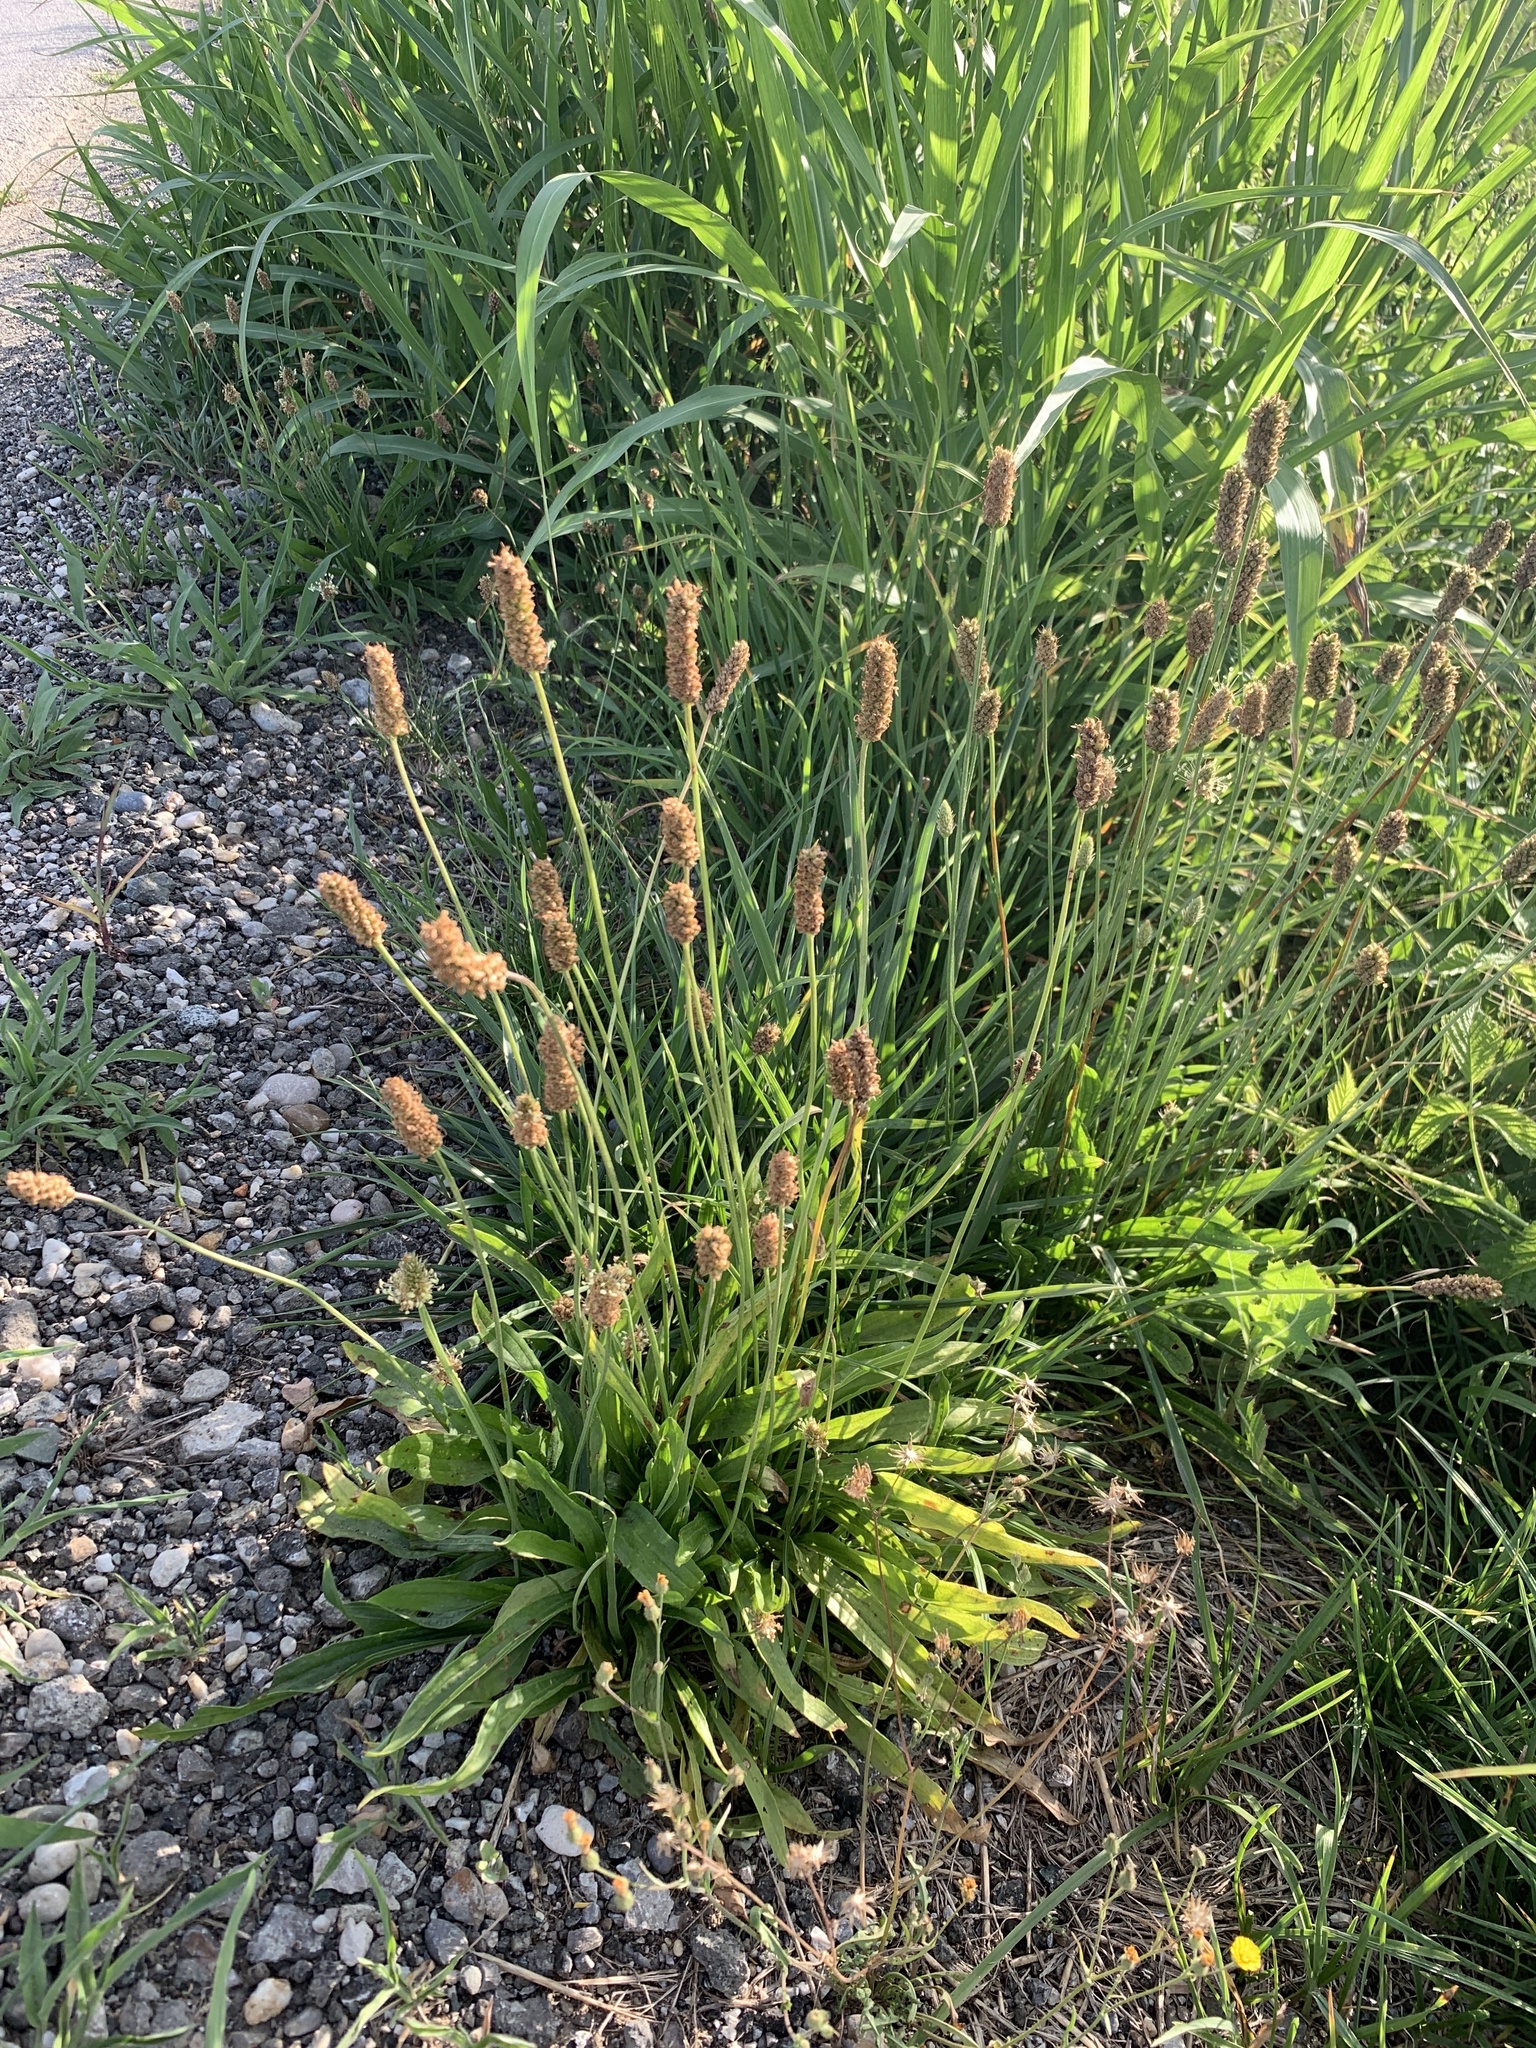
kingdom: Plantae
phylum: Tracheophyta
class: Magnoliopsida
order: Lamiales
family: Plantaginaceae
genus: Plantago
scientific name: Plantago lanceolata
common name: Ribwort plantain
